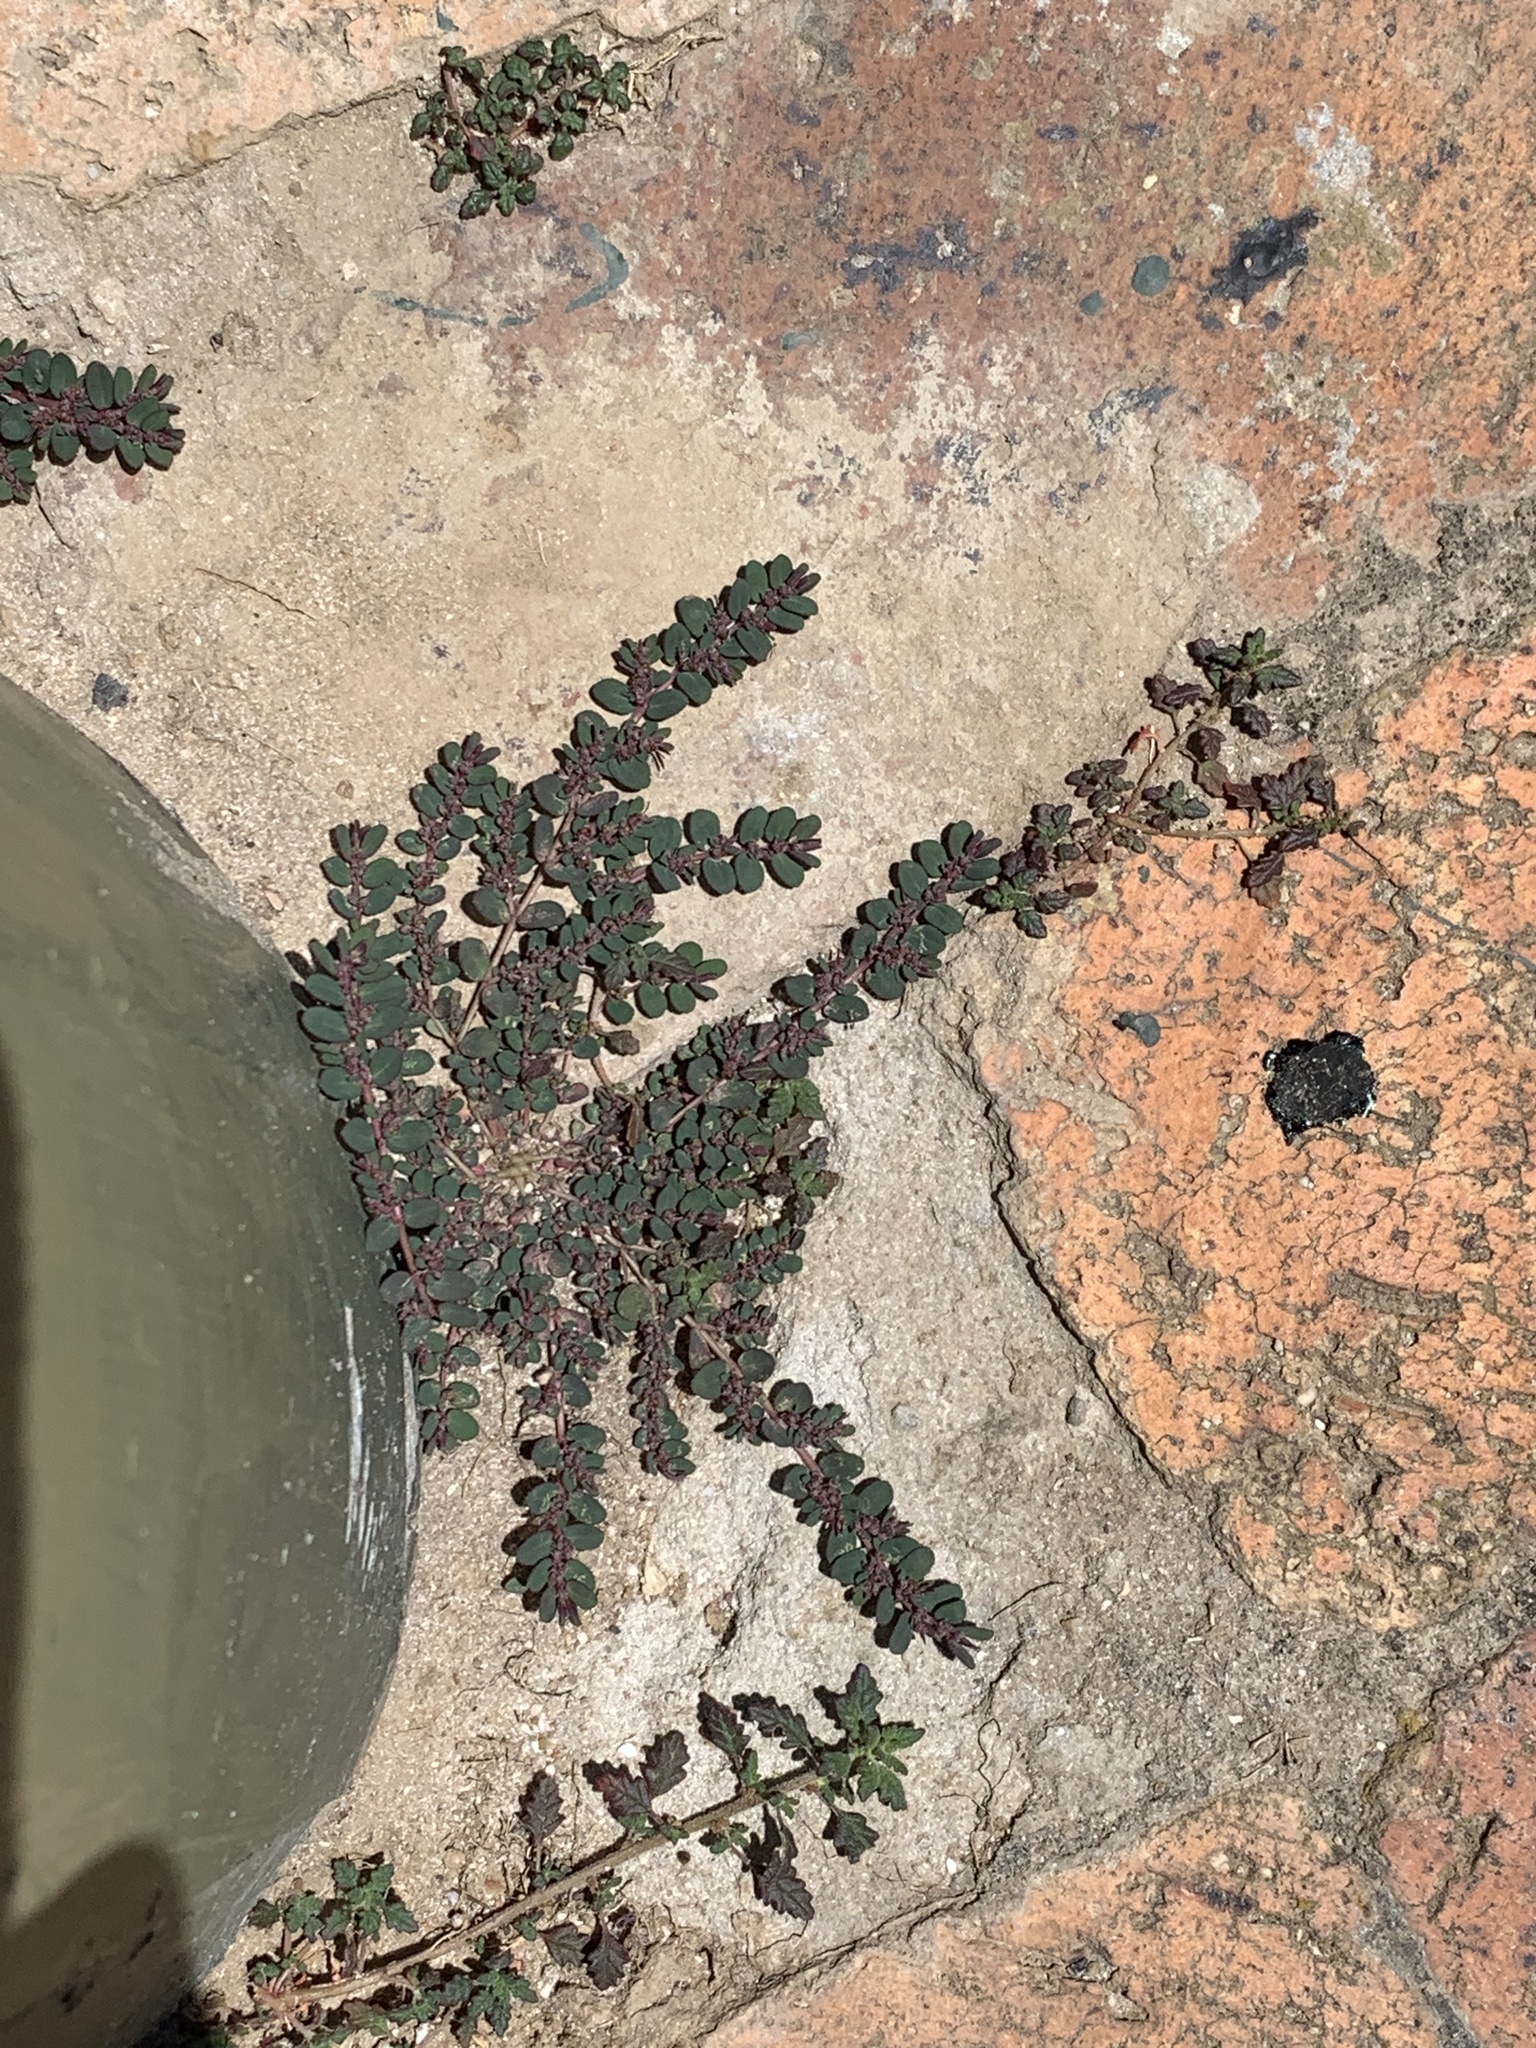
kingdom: Plantae
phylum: Tracheophyta
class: Magnoliopsida
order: Malpighiales
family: Euphorbiaceae
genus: Euphorbia
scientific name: Euphorbia prostrata
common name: Prostrate sandmat
